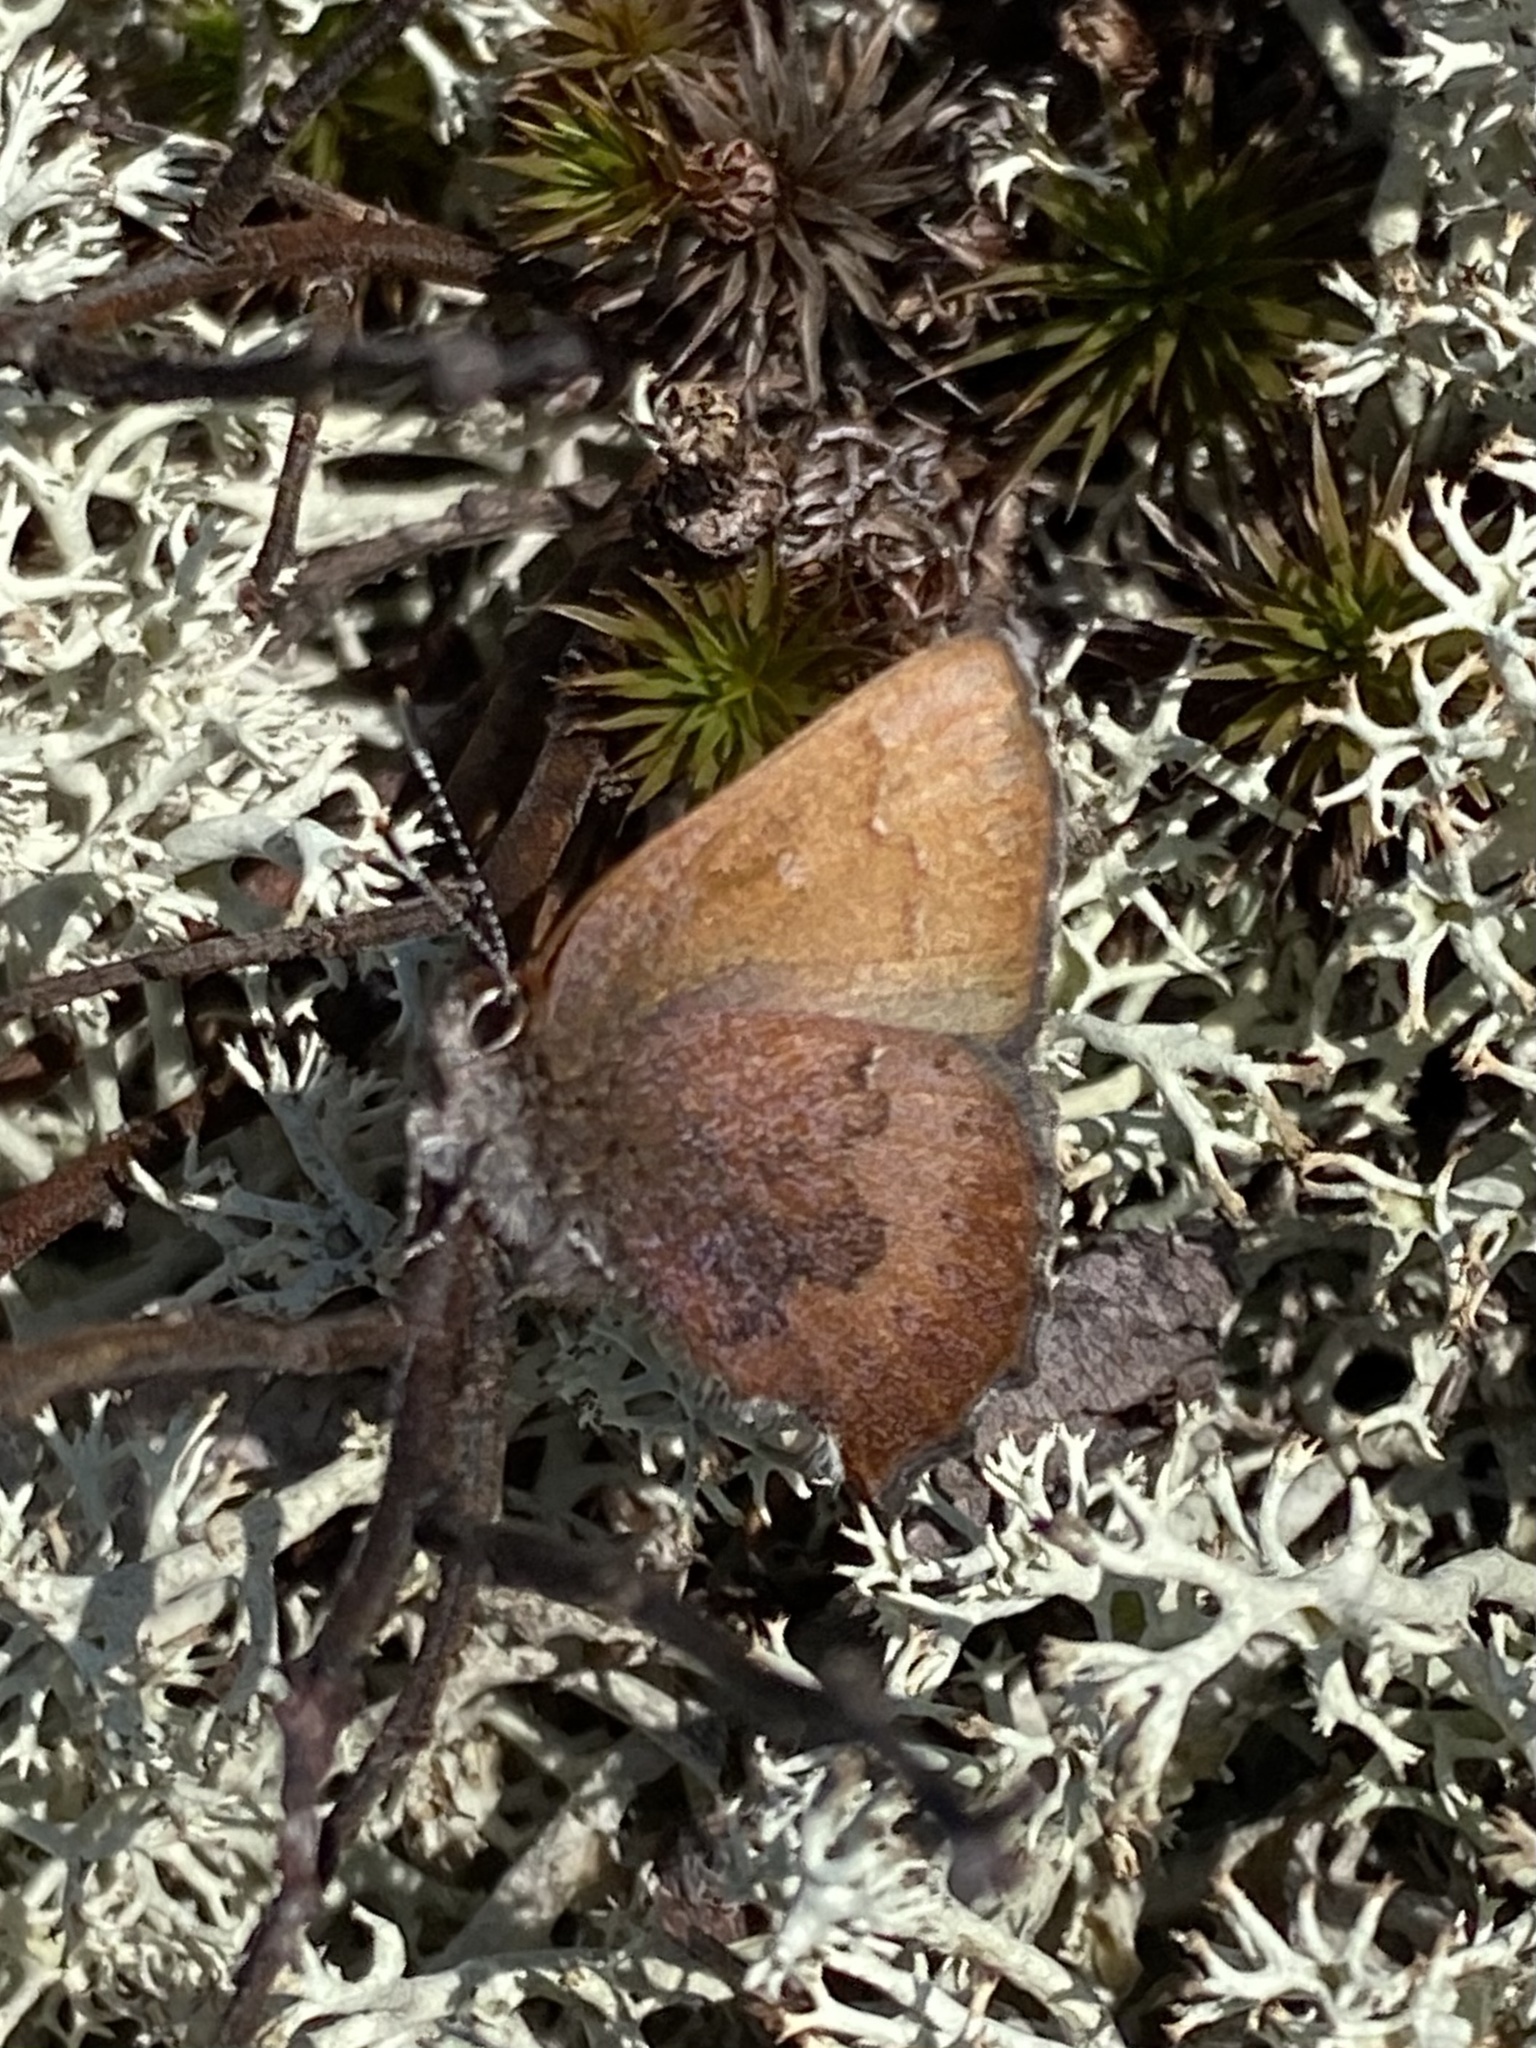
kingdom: Animalia
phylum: Arthropoda
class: Insecta
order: Lepidoptera
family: Lycaenidae
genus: Incisalia
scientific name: Incisalia irioides
